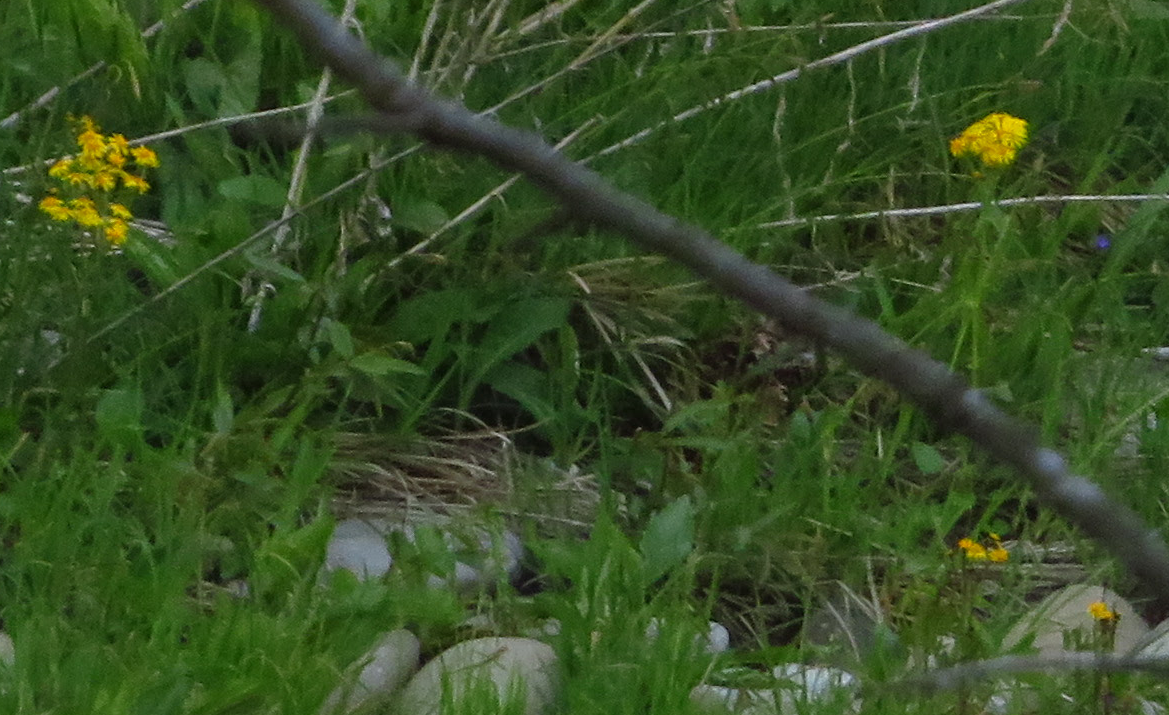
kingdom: Plantae
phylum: Tracheophyta
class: Magnoliopsida
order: Asterales
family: Asteraceae
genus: Packera
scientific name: Packera aurea
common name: Golden groundsel
